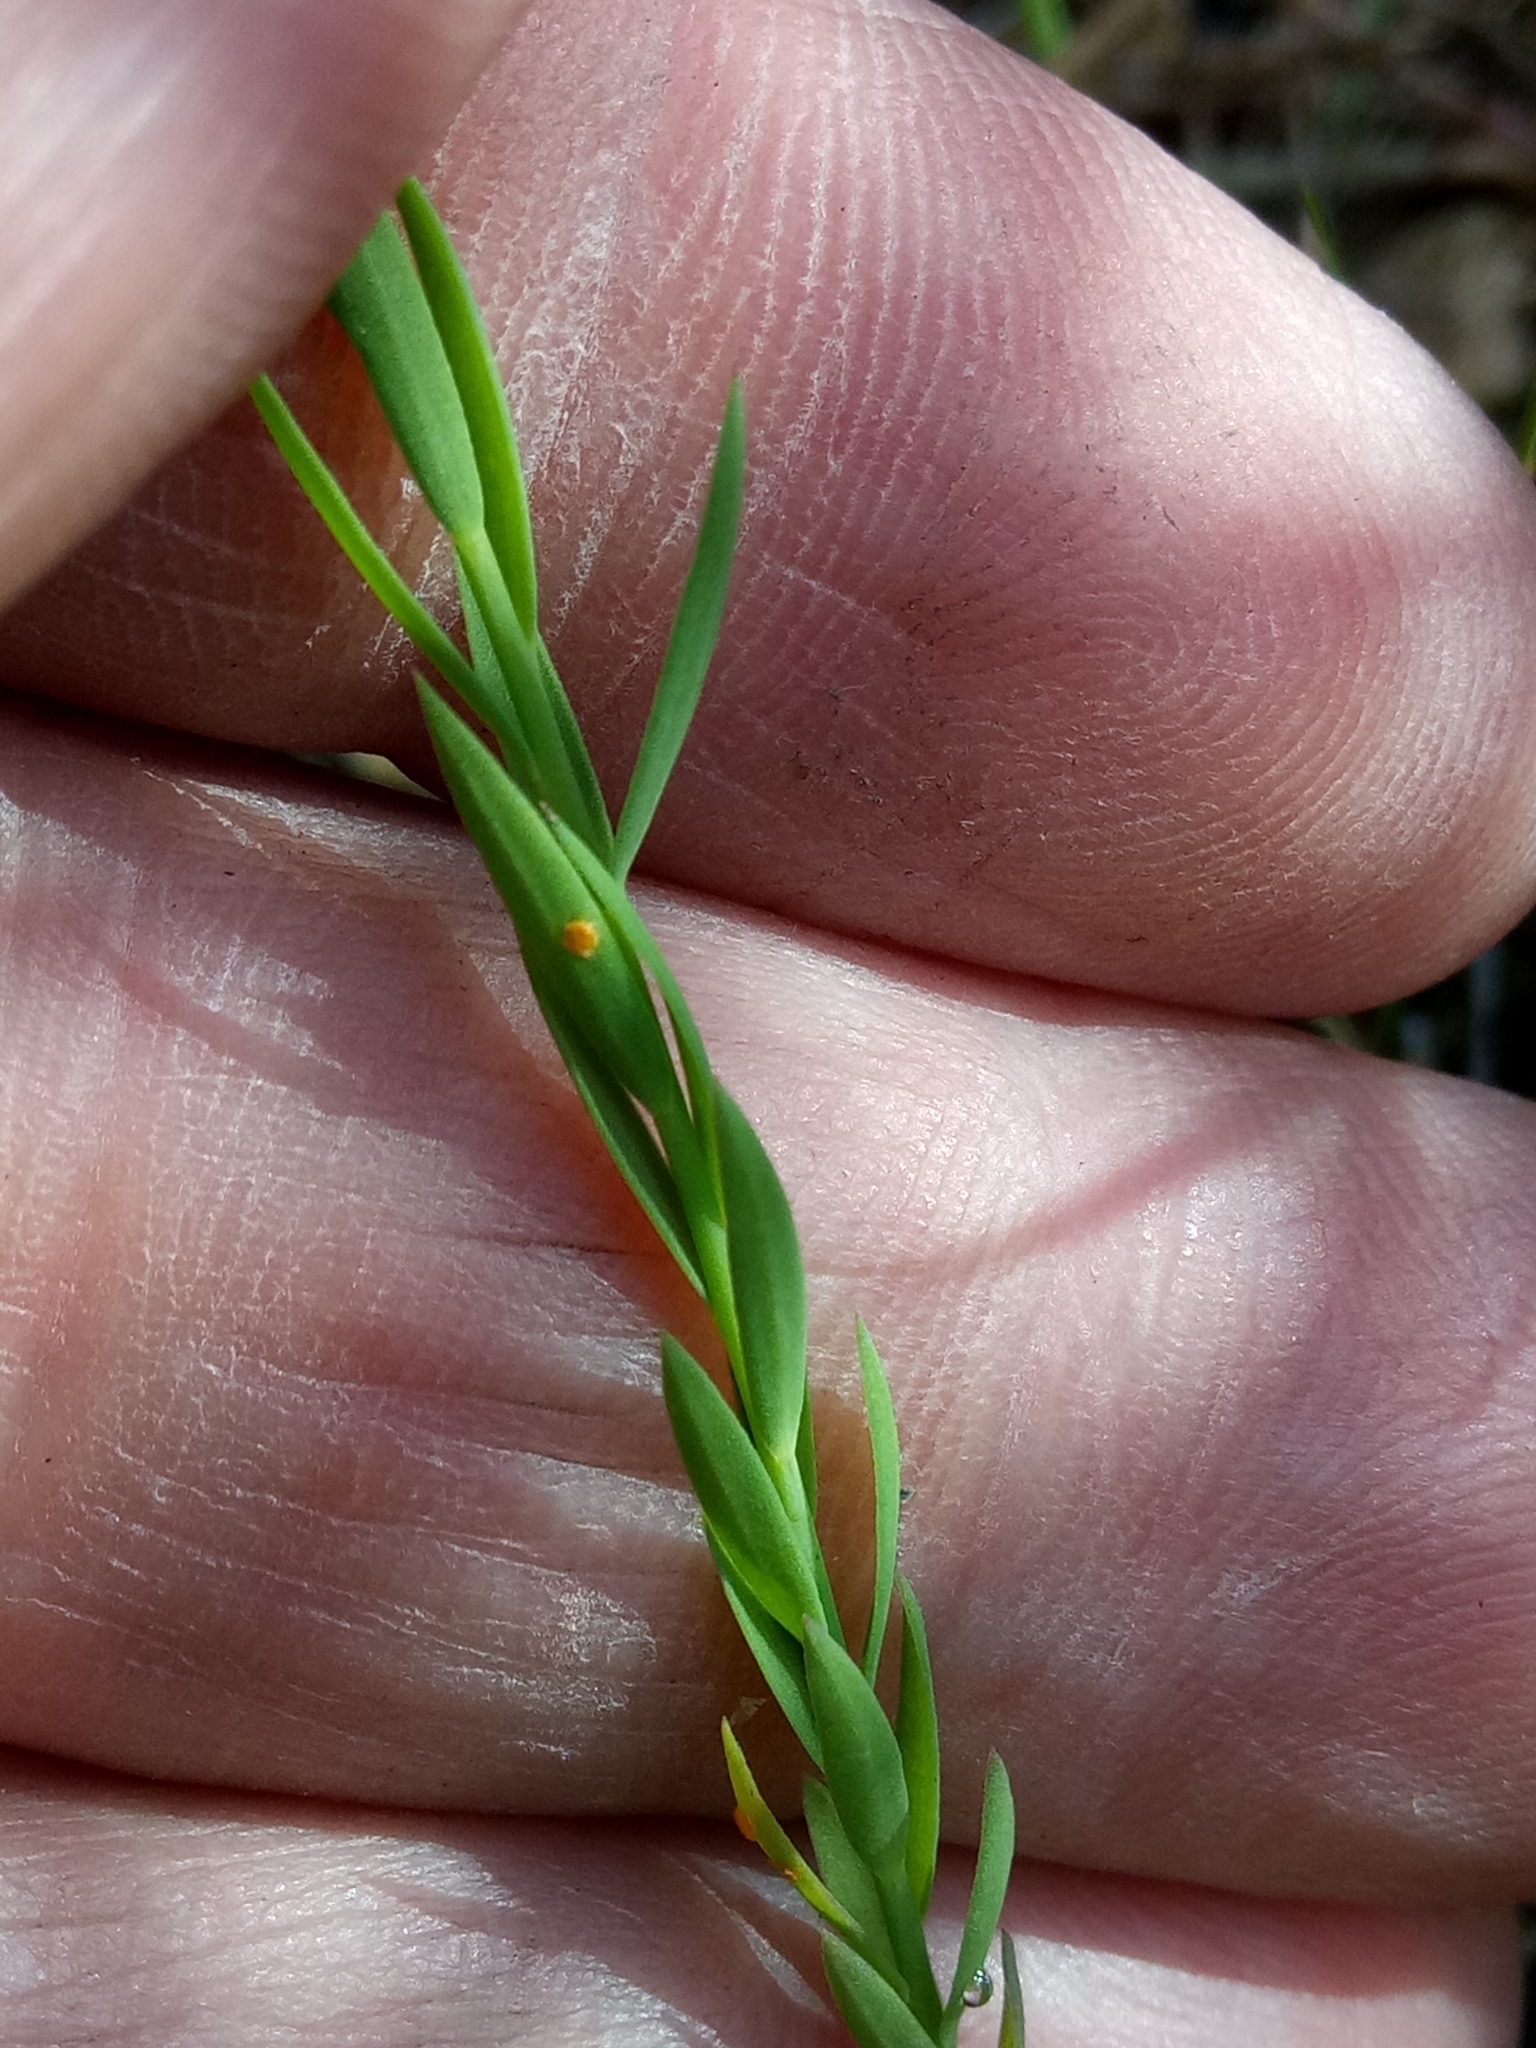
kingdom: Plantae
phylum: Tracheophyta
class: Magnoliopsida
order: Malpighiales
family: Linaceae
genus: Linum
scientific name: Linum bienne
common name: Pale flax
